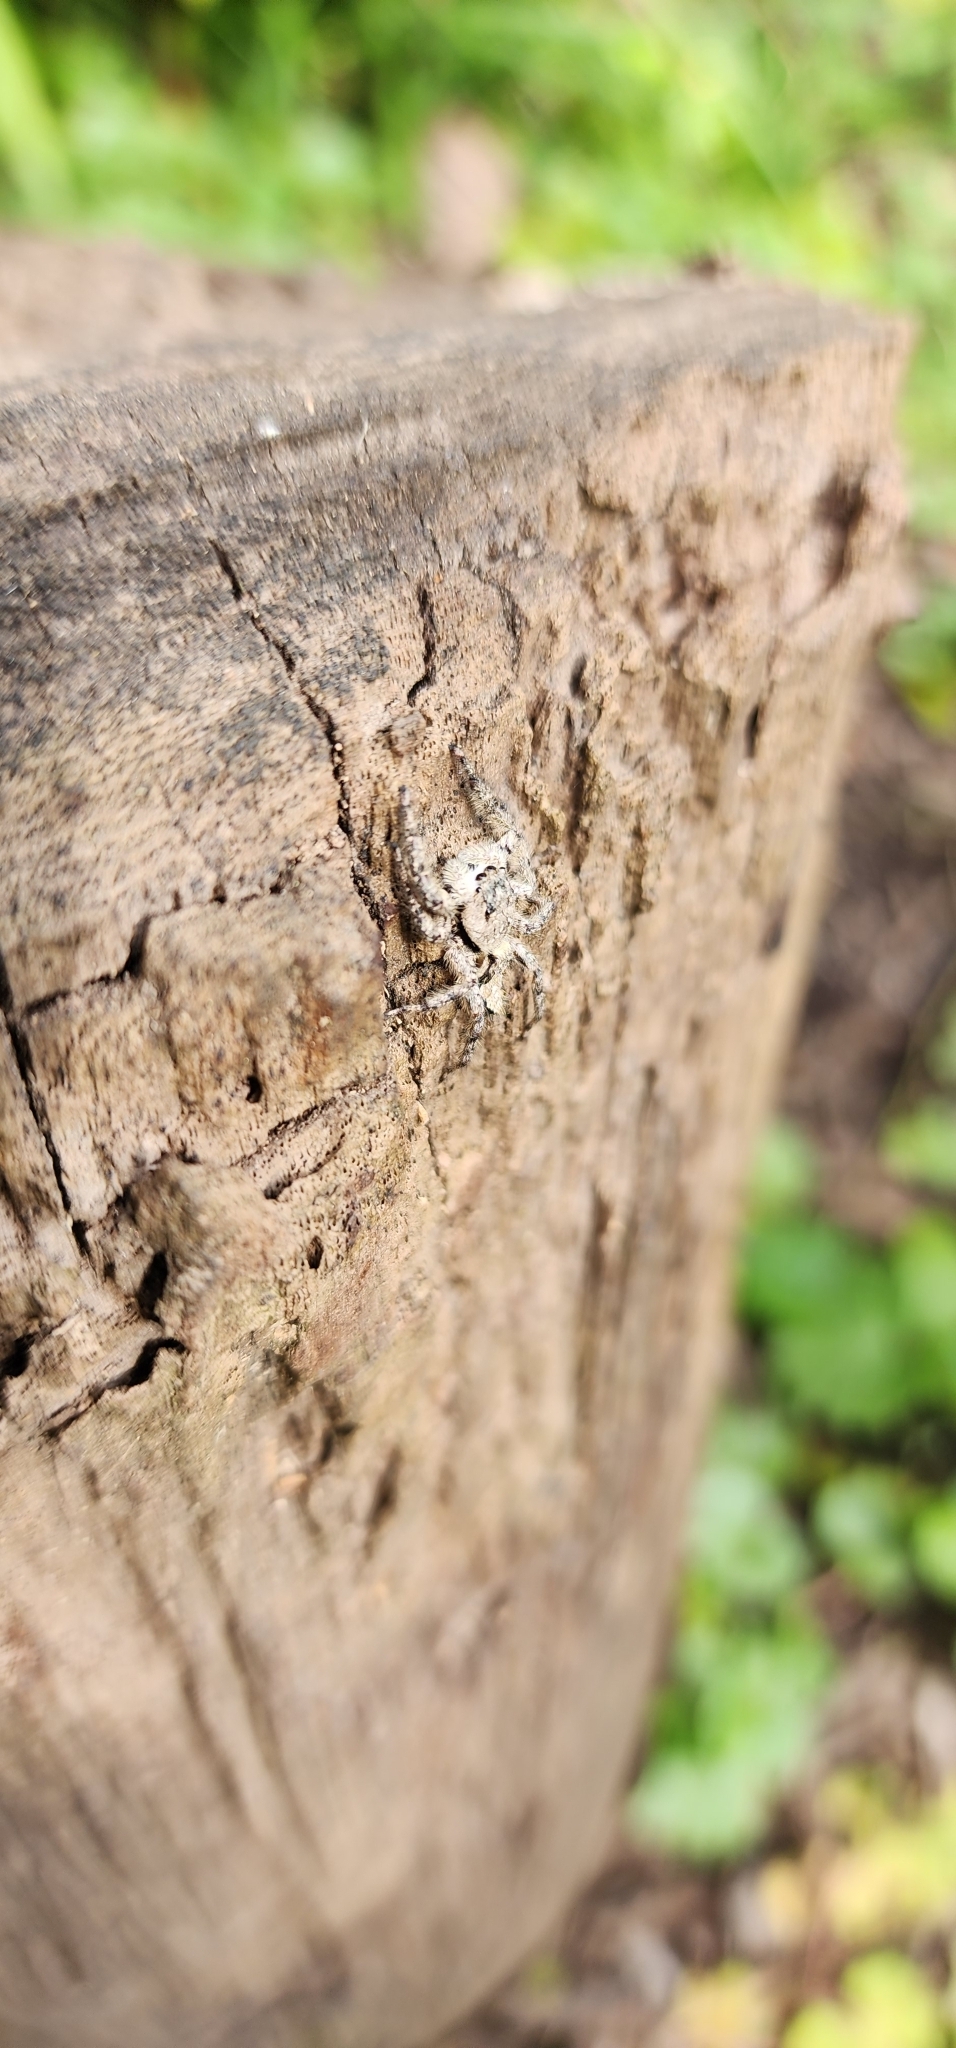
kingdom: Animalia
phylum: Arthropoda
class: Arachnida
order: Araneae
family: Salticidae
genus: Platycryptus
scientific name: Platycryptus undatus
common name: Tan jumping spider
